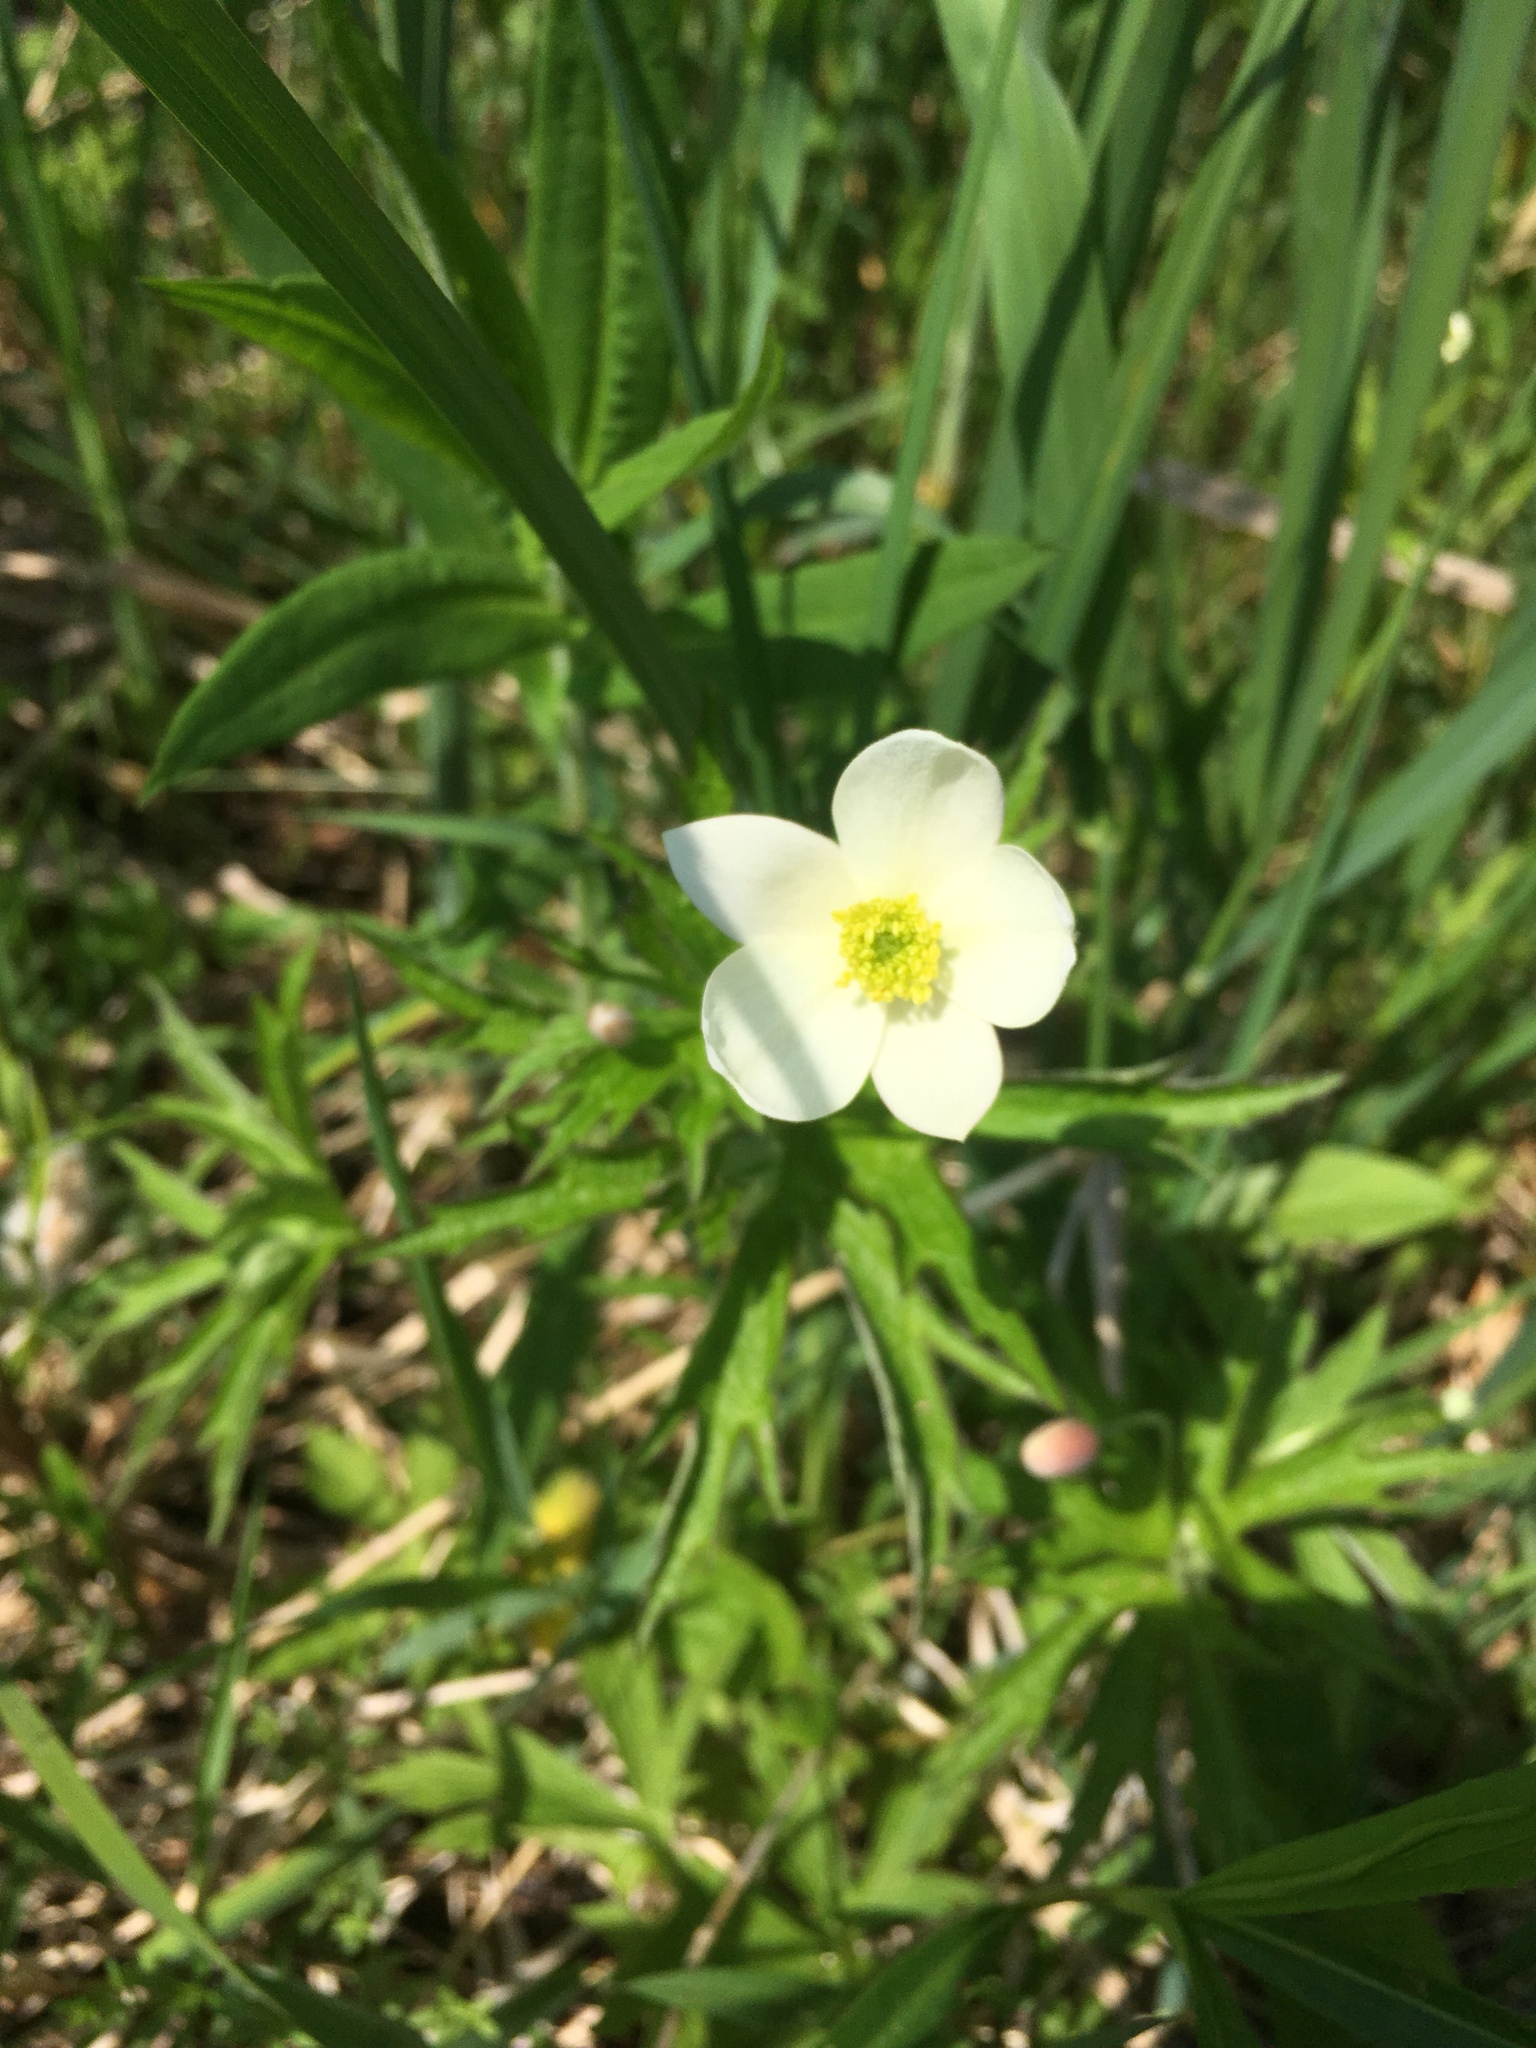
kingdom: Plantae
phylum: Tracheophyta
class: Magnoliopsida
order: Ranunculales
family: Ranunculaceae
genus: Anemonastrum
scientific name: Anemonastrum canadense
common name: Canada anemone
